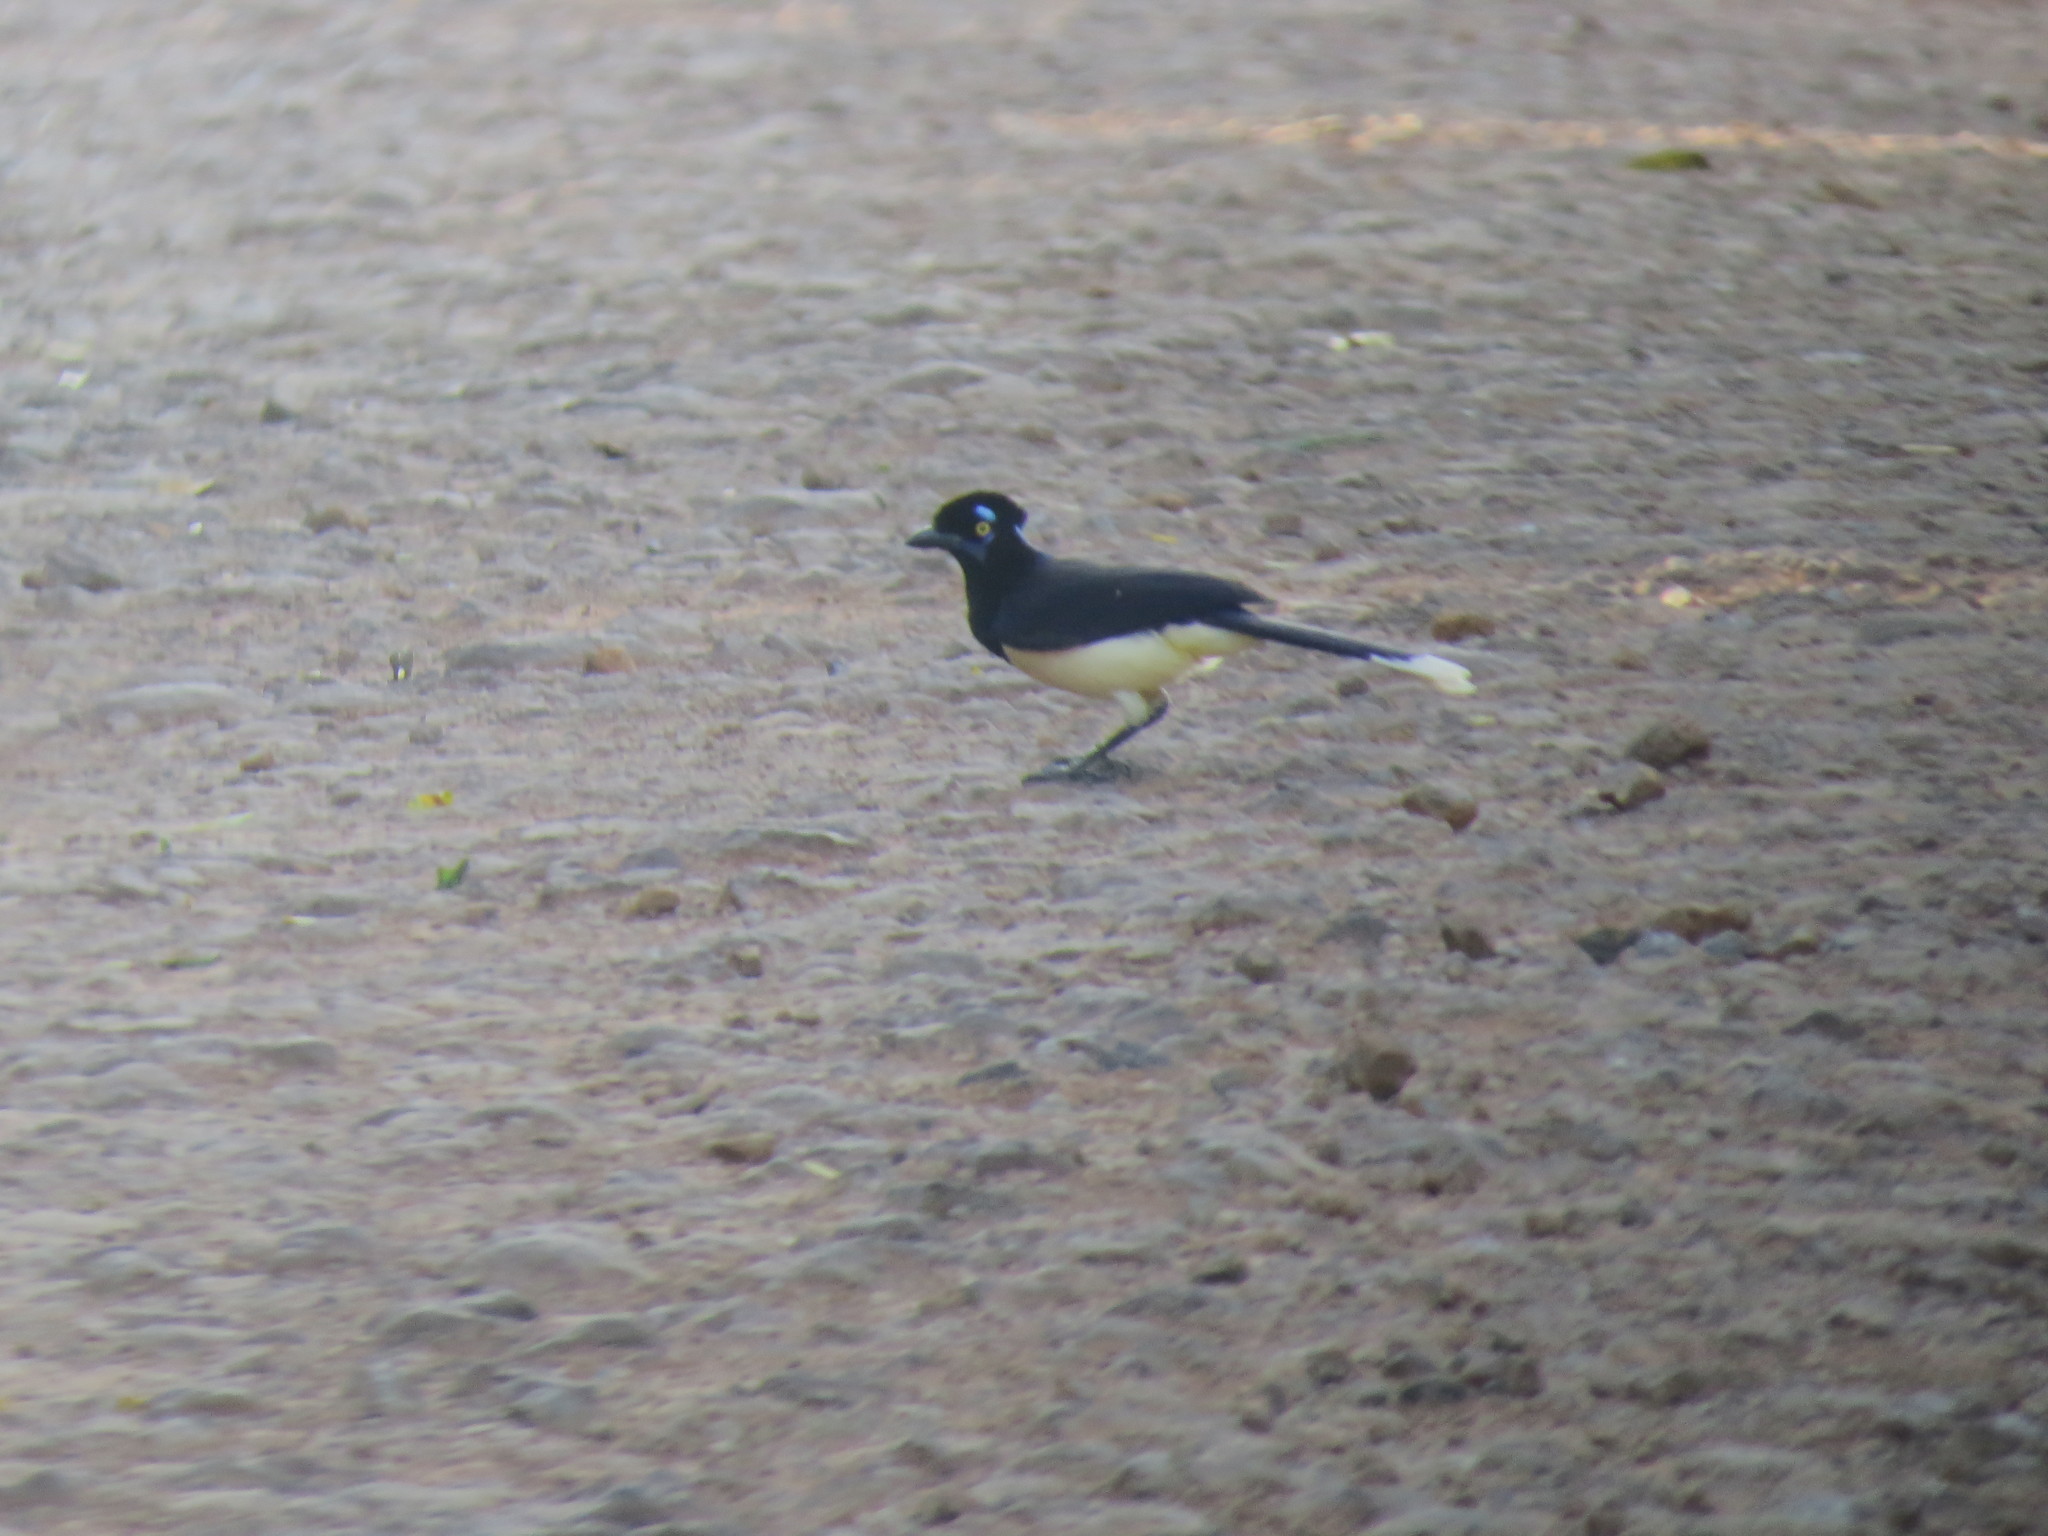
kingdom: Animalia
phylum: Chordata
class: Aves
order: Passeriformes
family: Corvidae
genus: Cyanocorax
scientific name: Cyanocorax chrysops
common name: Plush-crested jay
